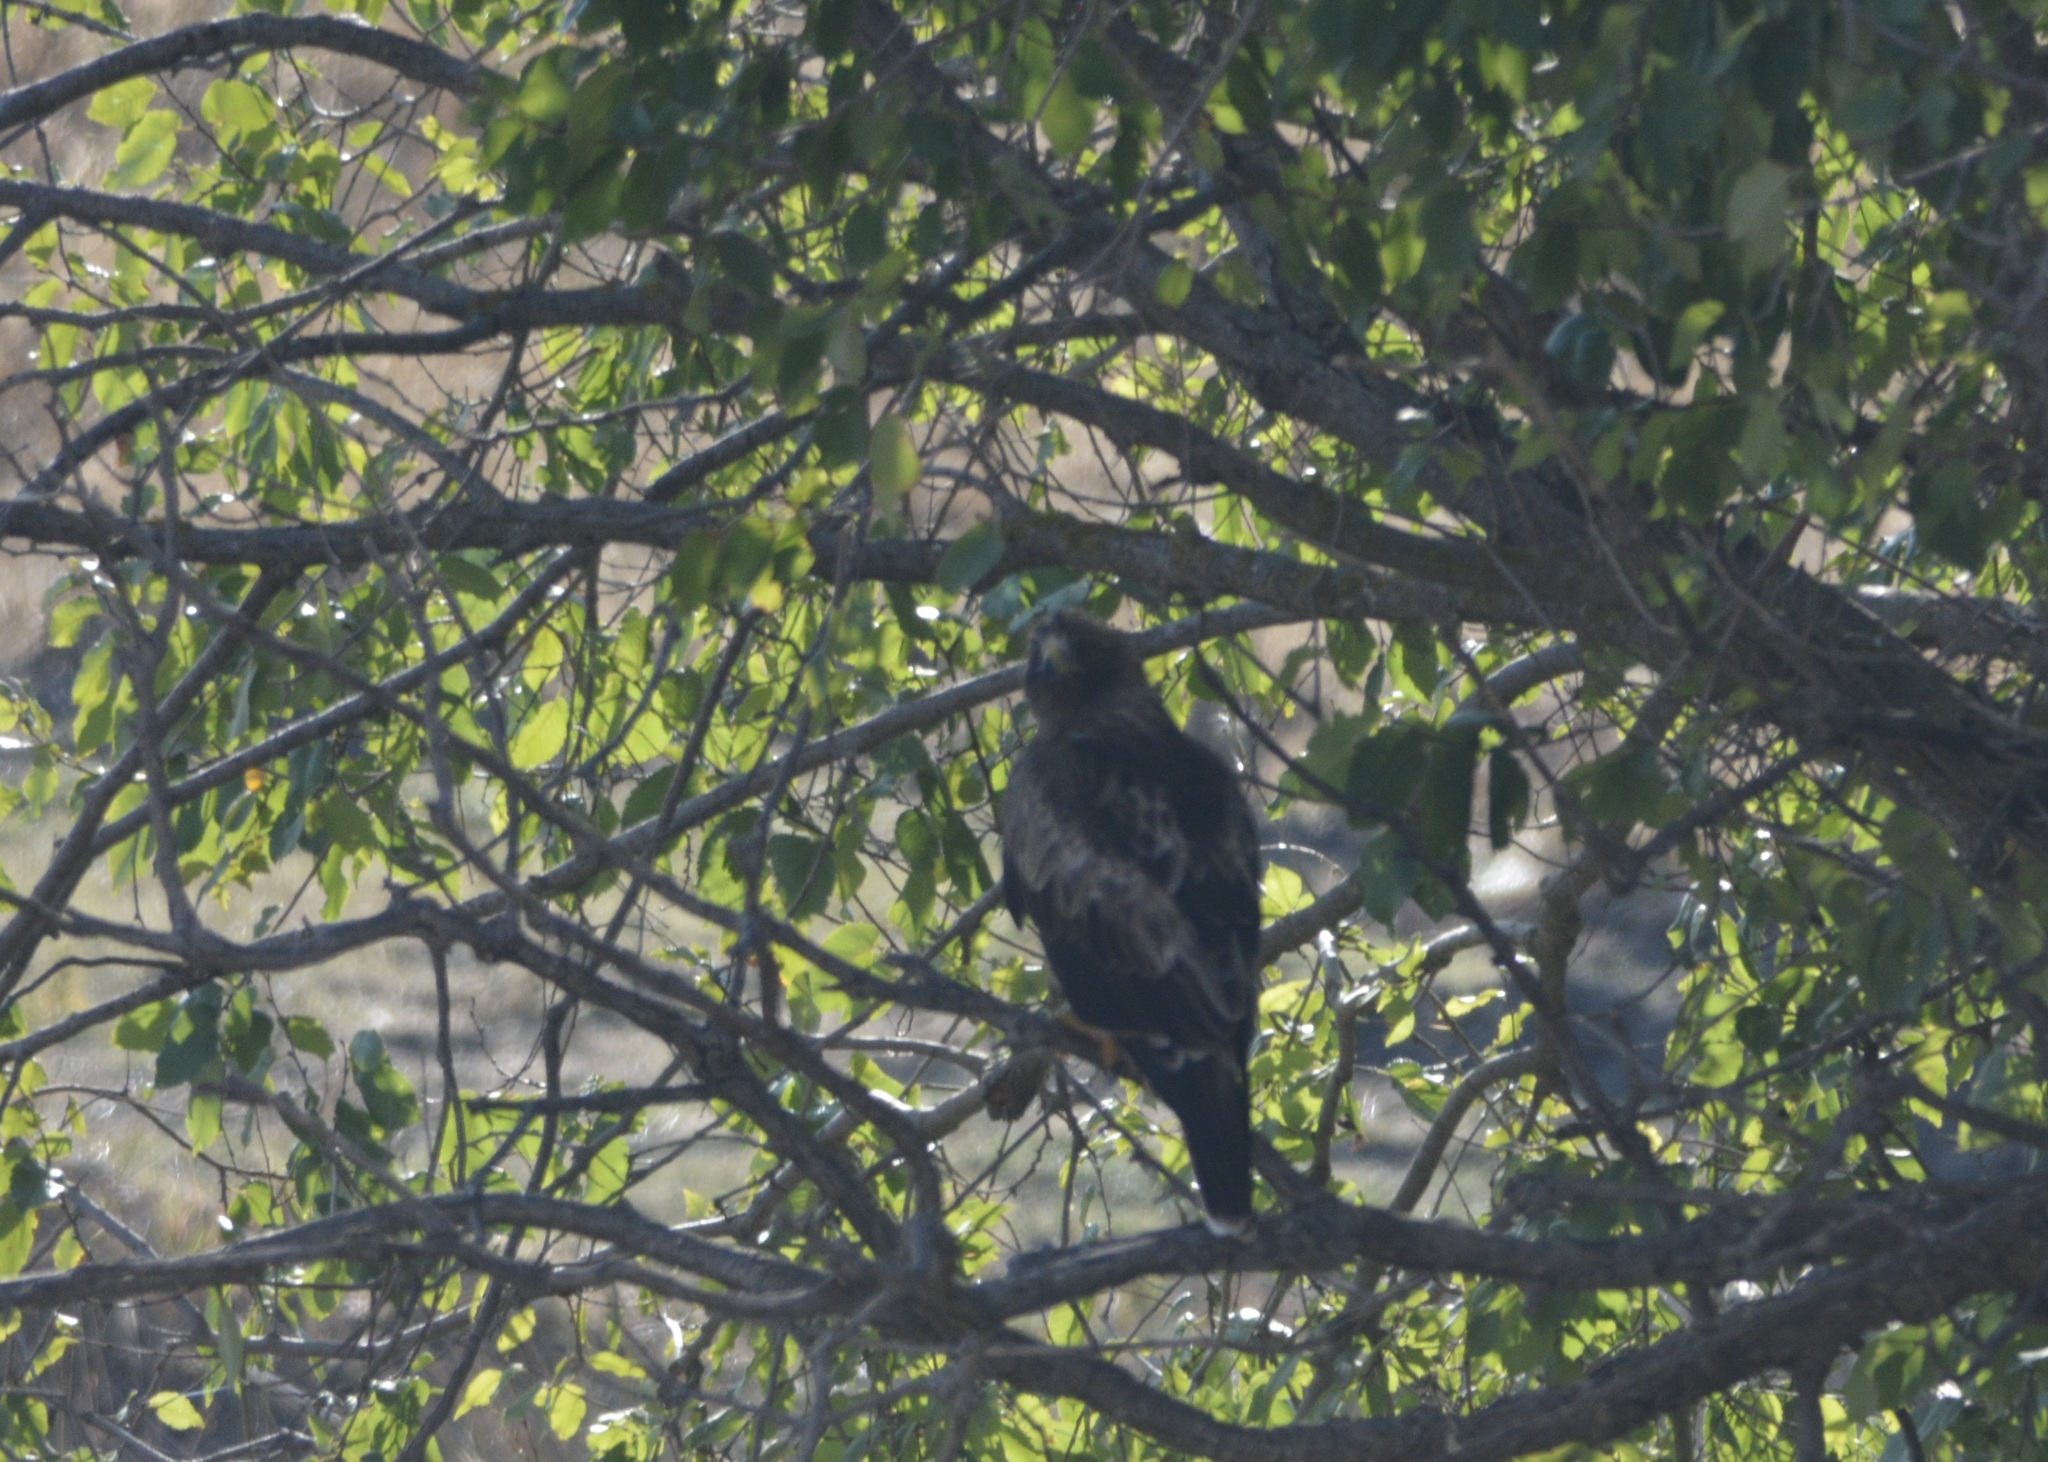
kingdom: Animalia
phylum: Chordata
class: Aves
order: Accipitriformes
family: Accipitridae
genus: Hieraaetus
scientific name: Hieraaetus pennatus
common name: Booted eagle
